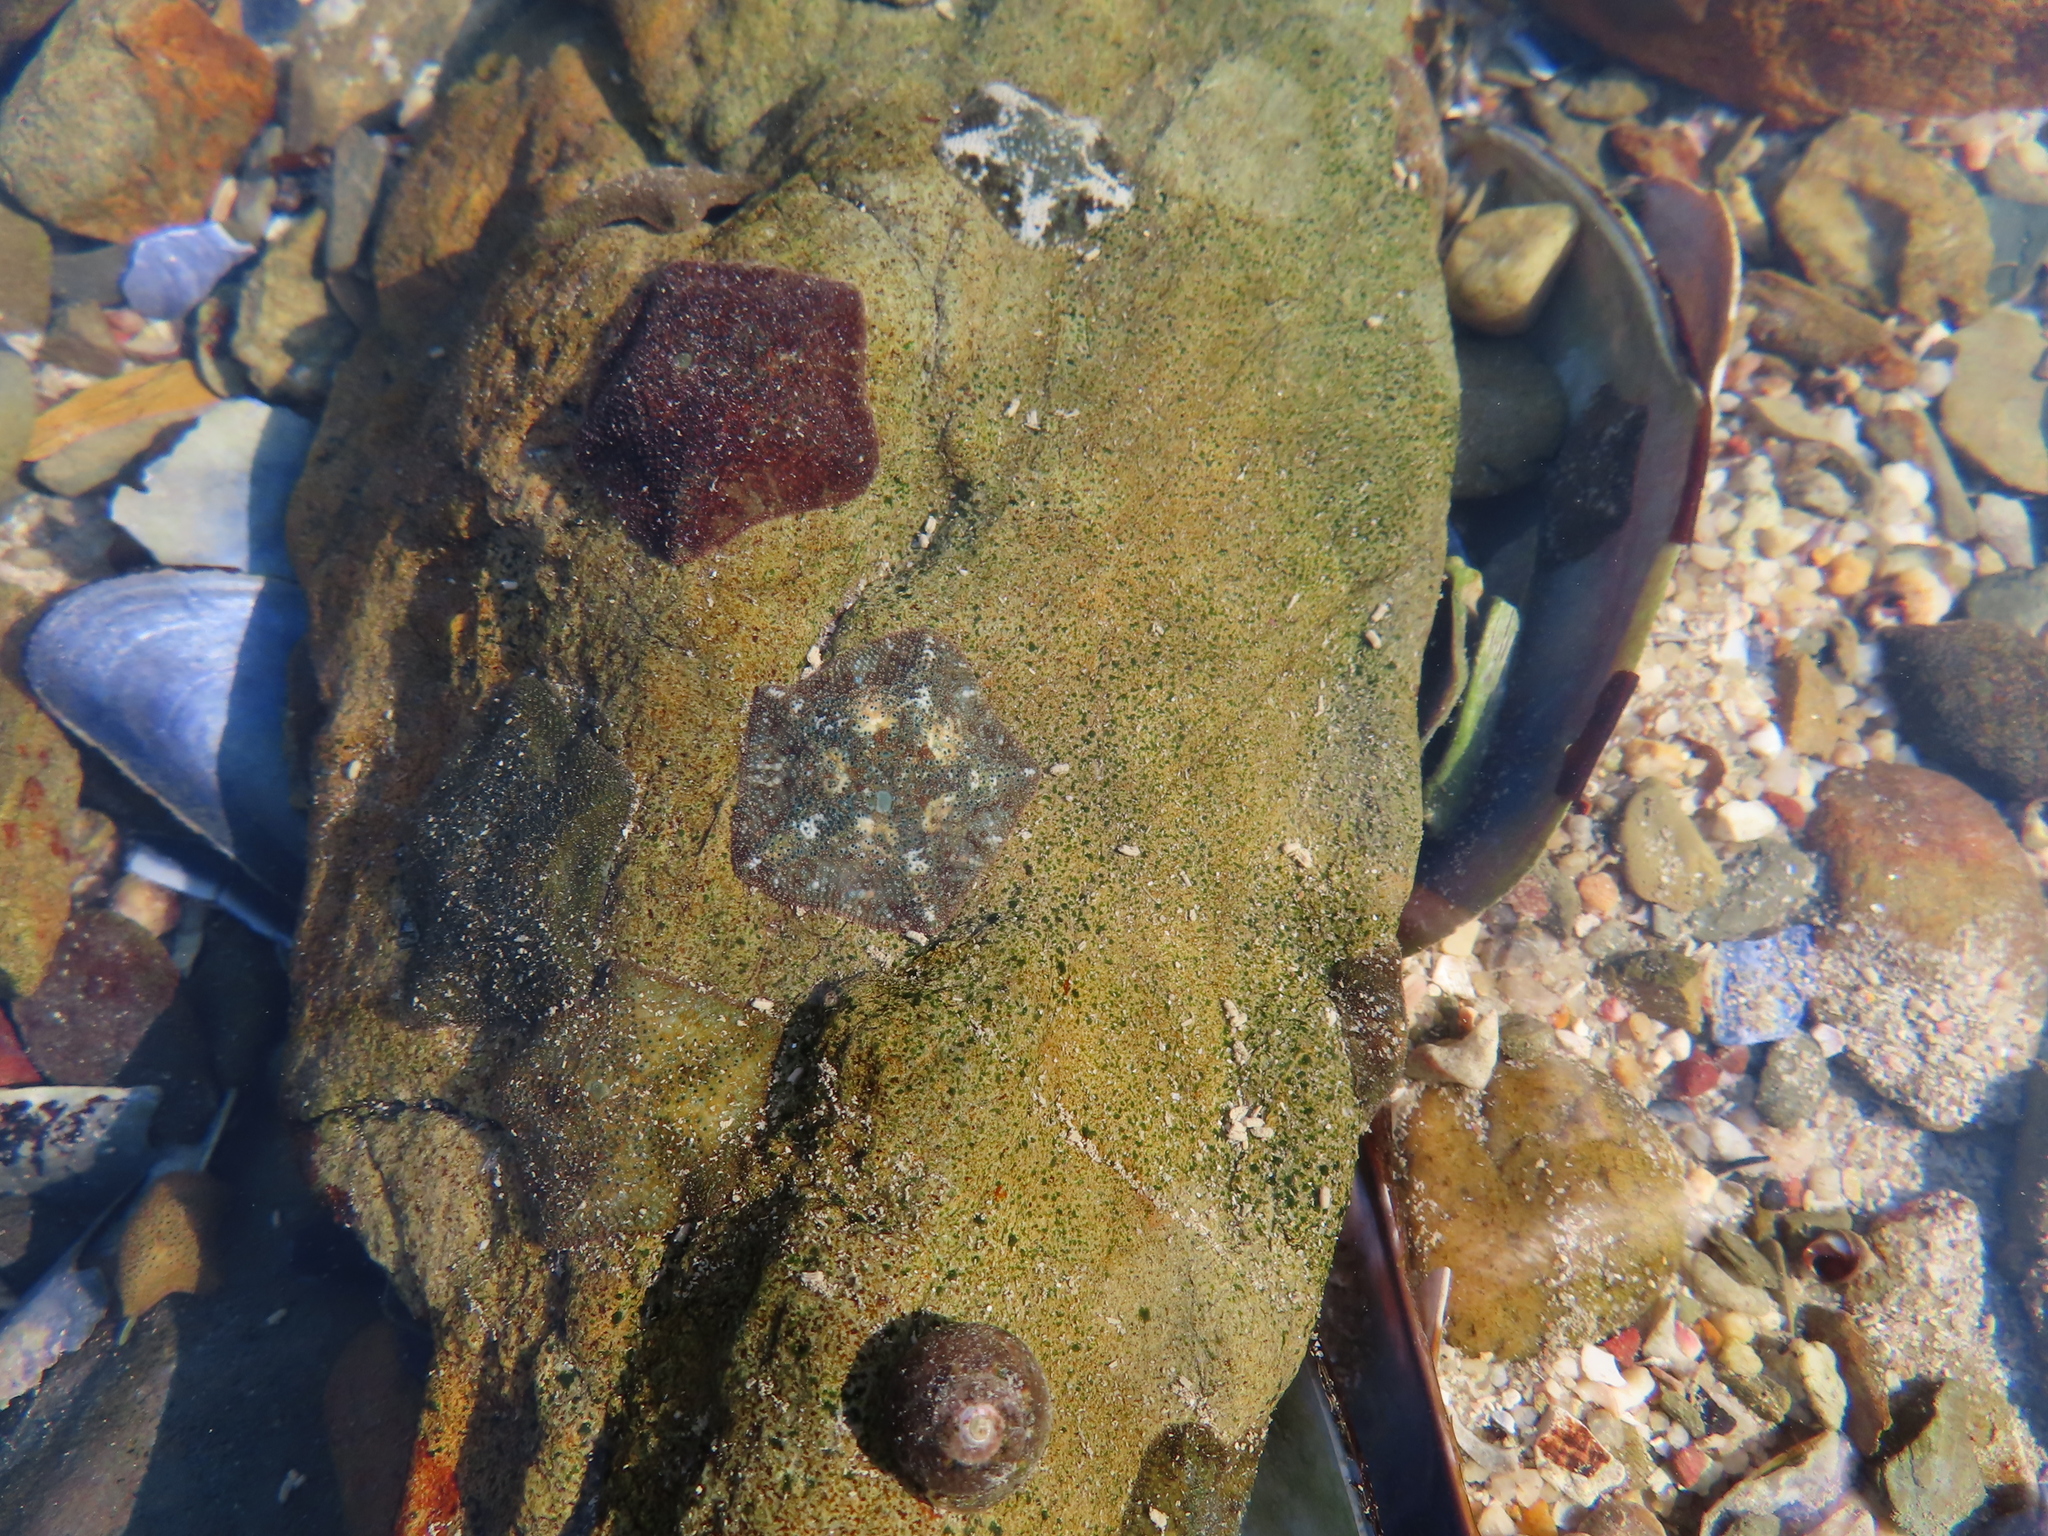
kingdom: Animalia
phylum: Echinodermata
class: Asteroidea
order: Valvatida
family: Asterinidae
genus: Parvulastra
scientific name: Parvulastra exigua
